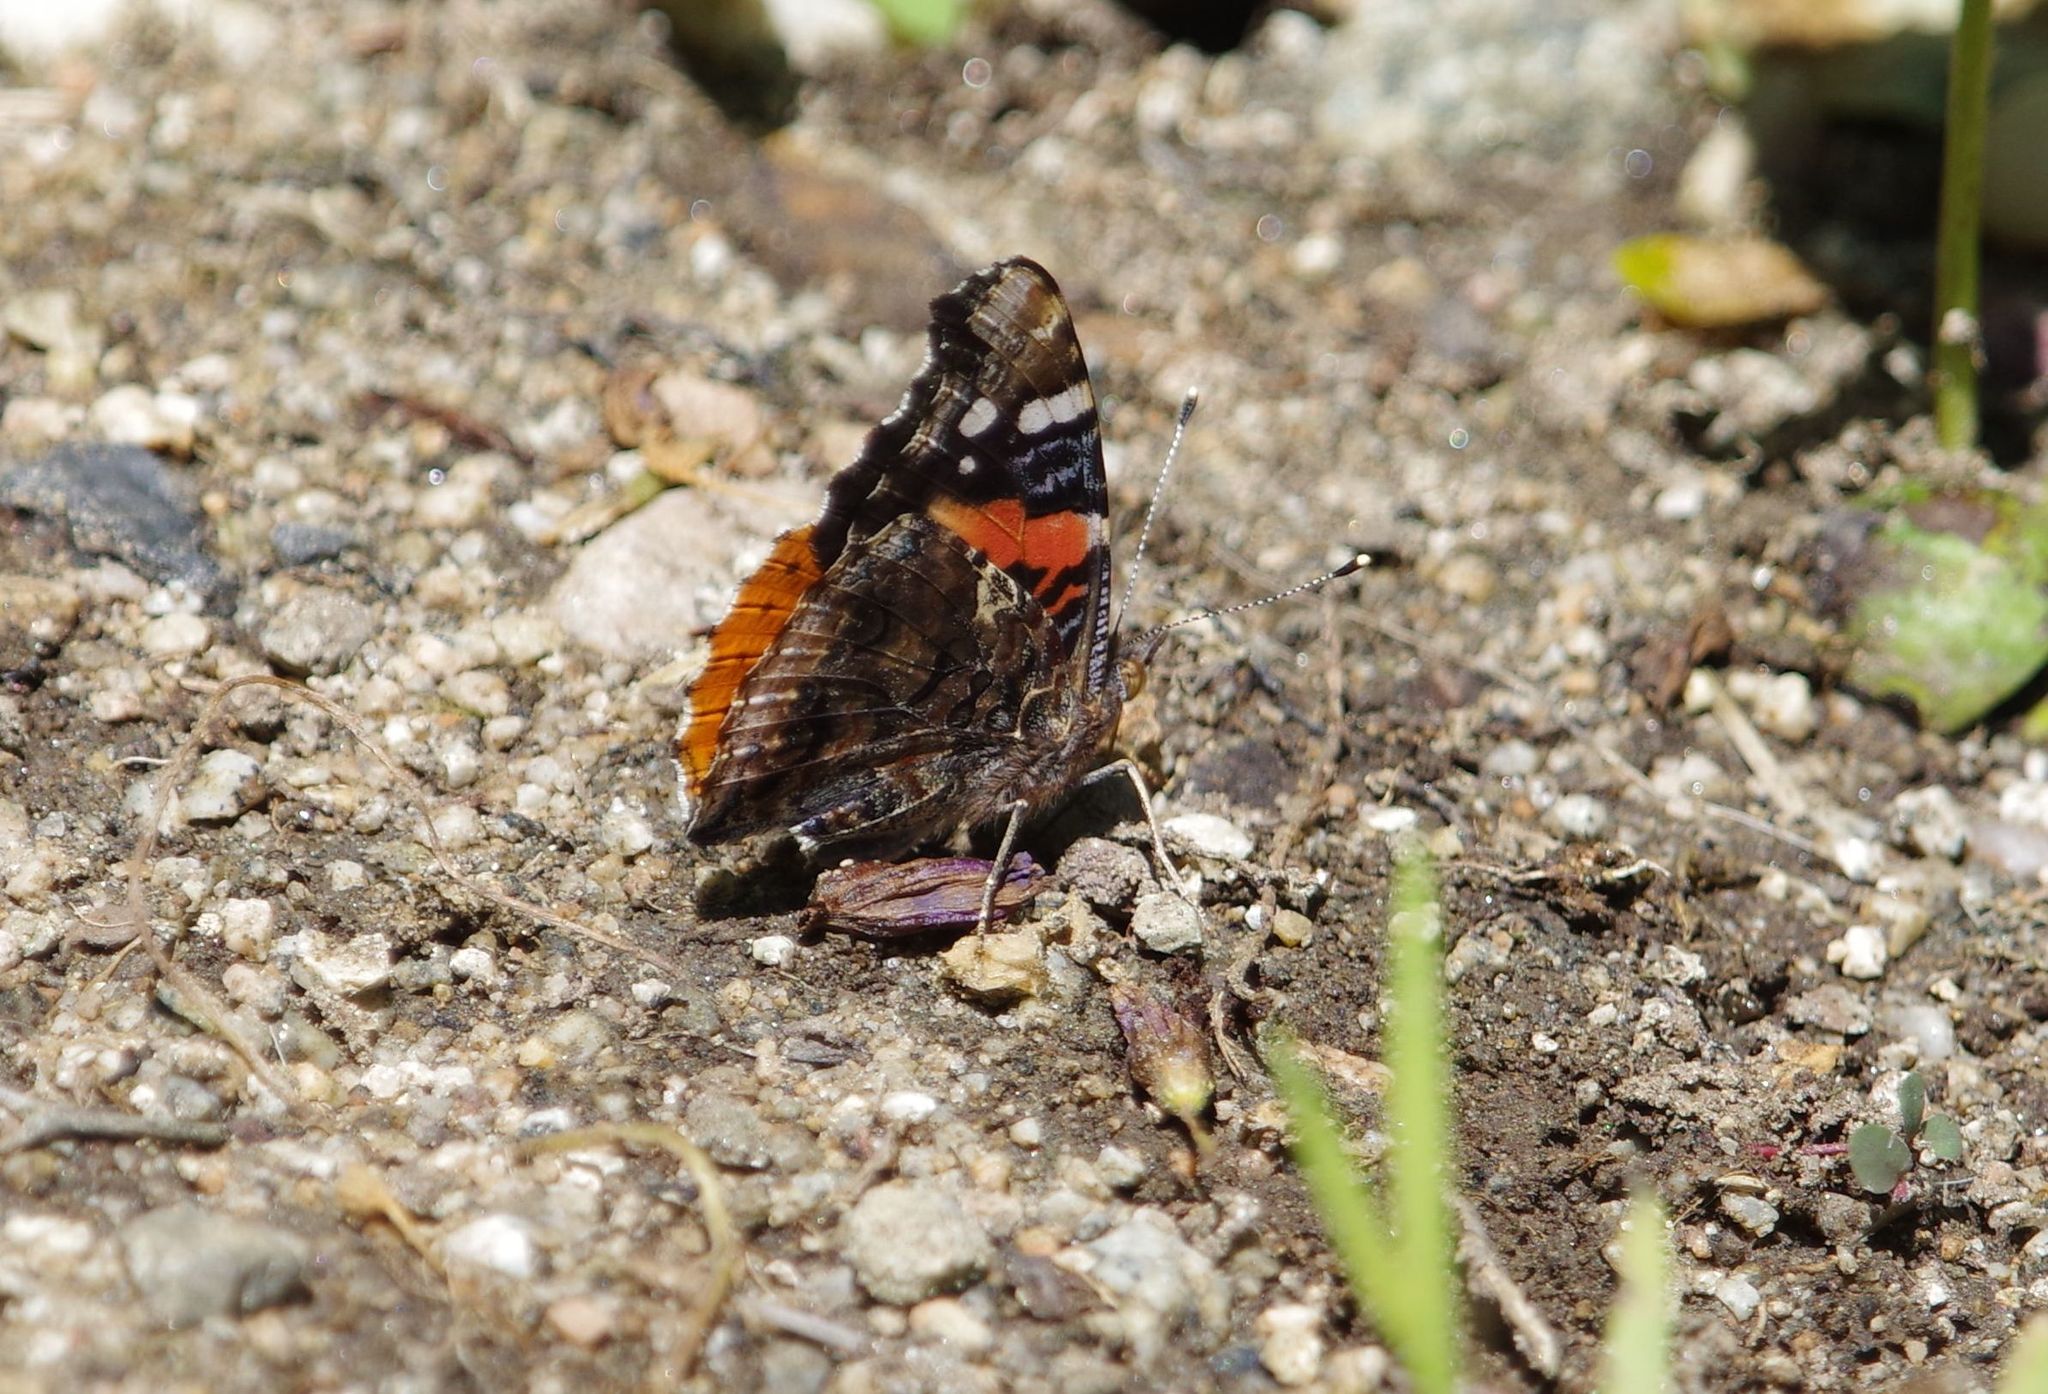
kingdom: Animalia
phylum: Arthropoda
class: Insecta
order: Lepidoptera
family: Nymphalidae
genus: Vanessa
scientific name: Vanessa atalanta
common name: Red admiral
